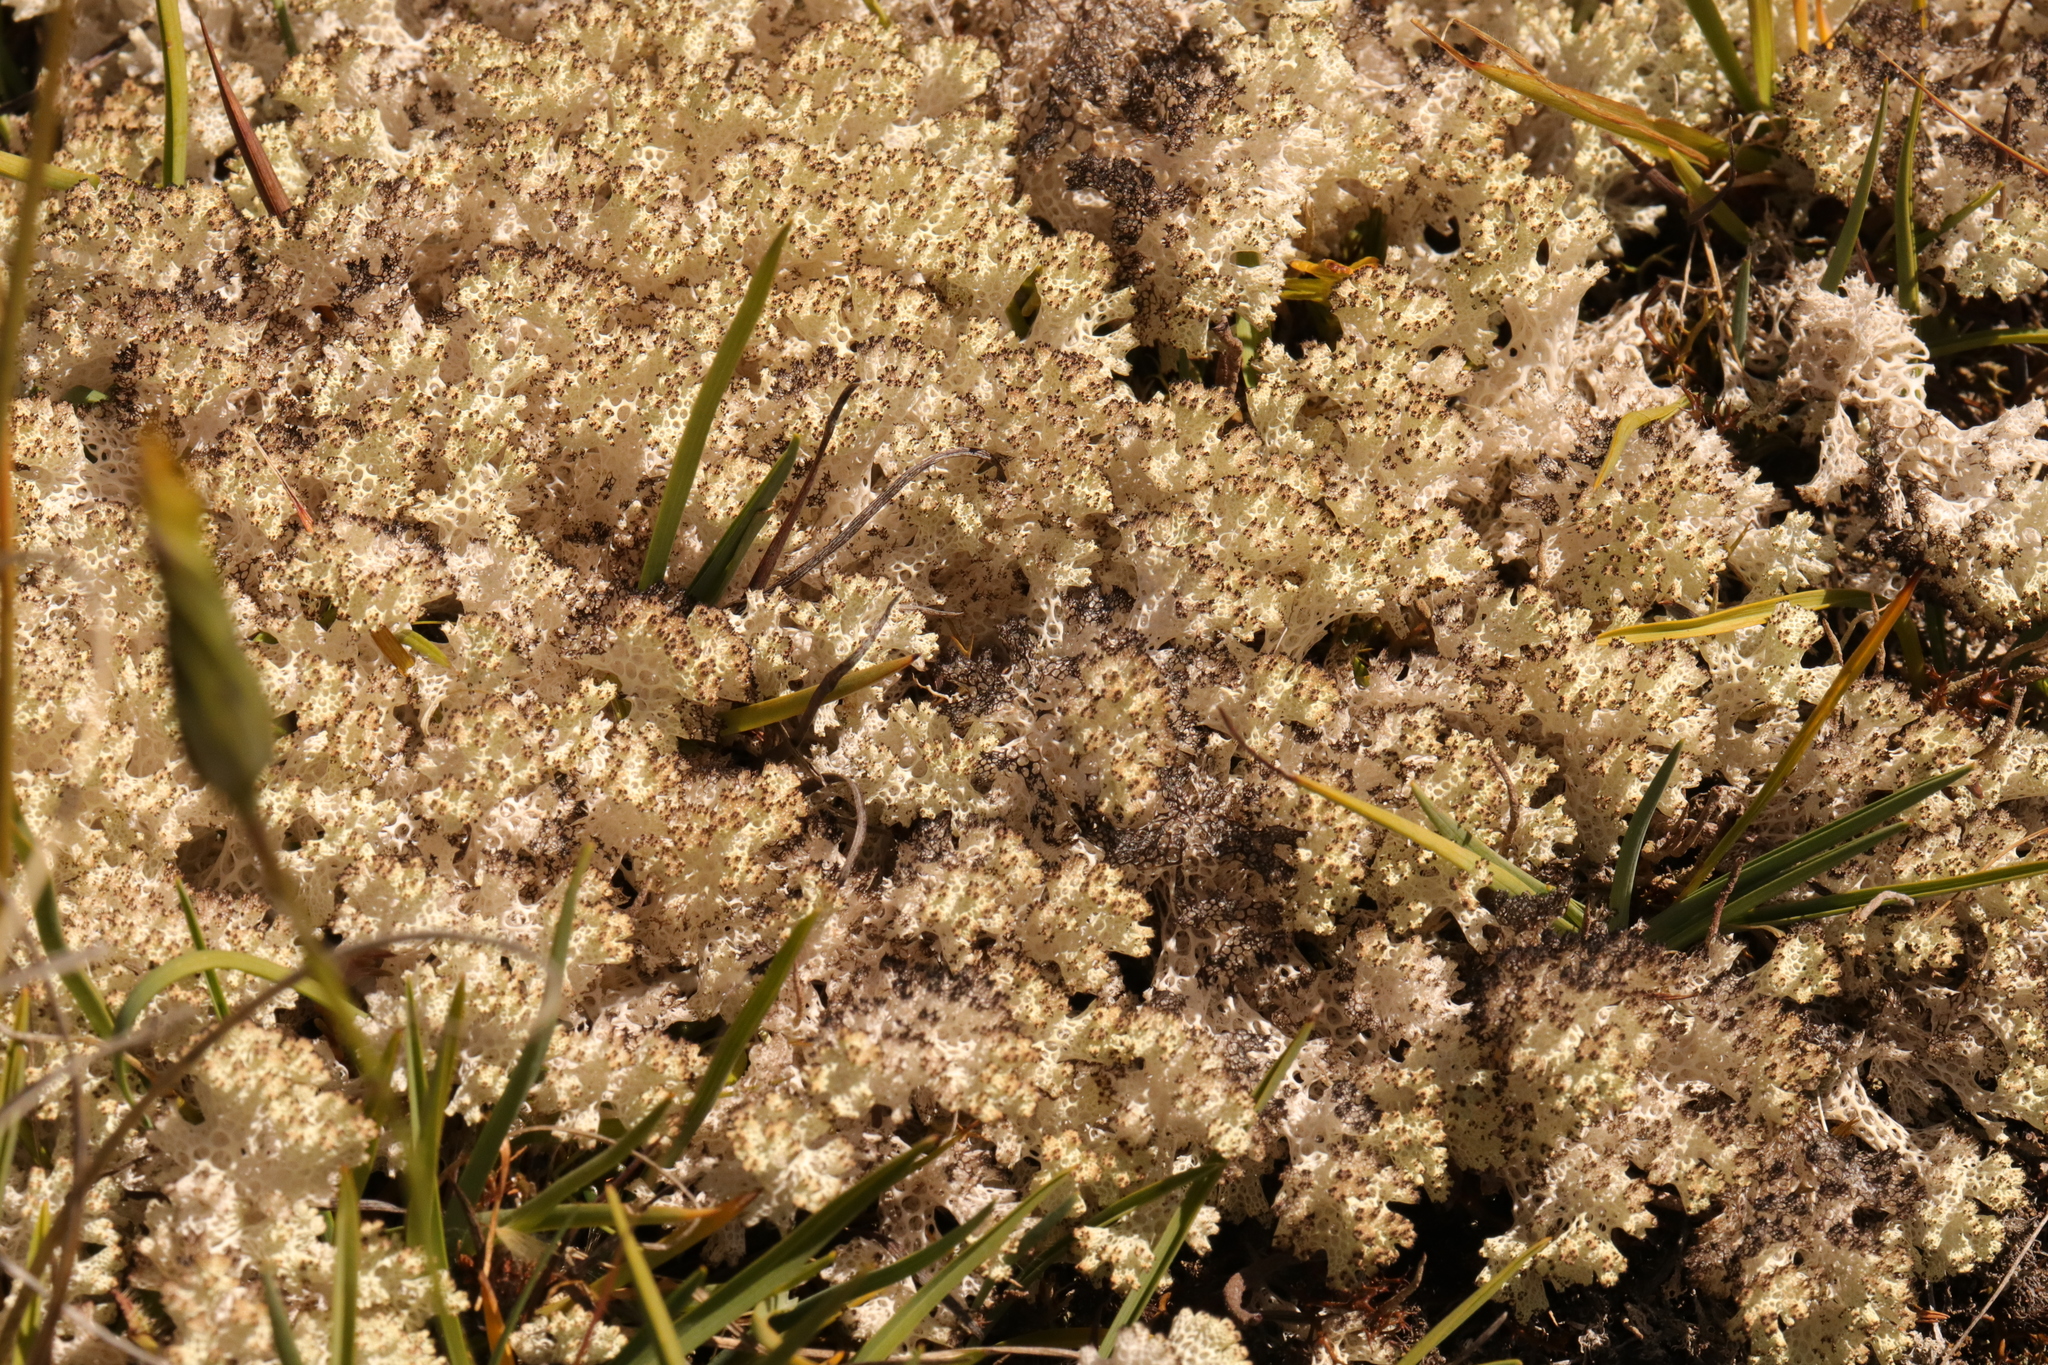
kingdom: Fungi
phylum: Ascomycota
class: Lecanoromycetes
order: Lecanorales
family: Cladoniaceae
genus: Pulchrocladia
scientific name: Pulchrocladia retipora
